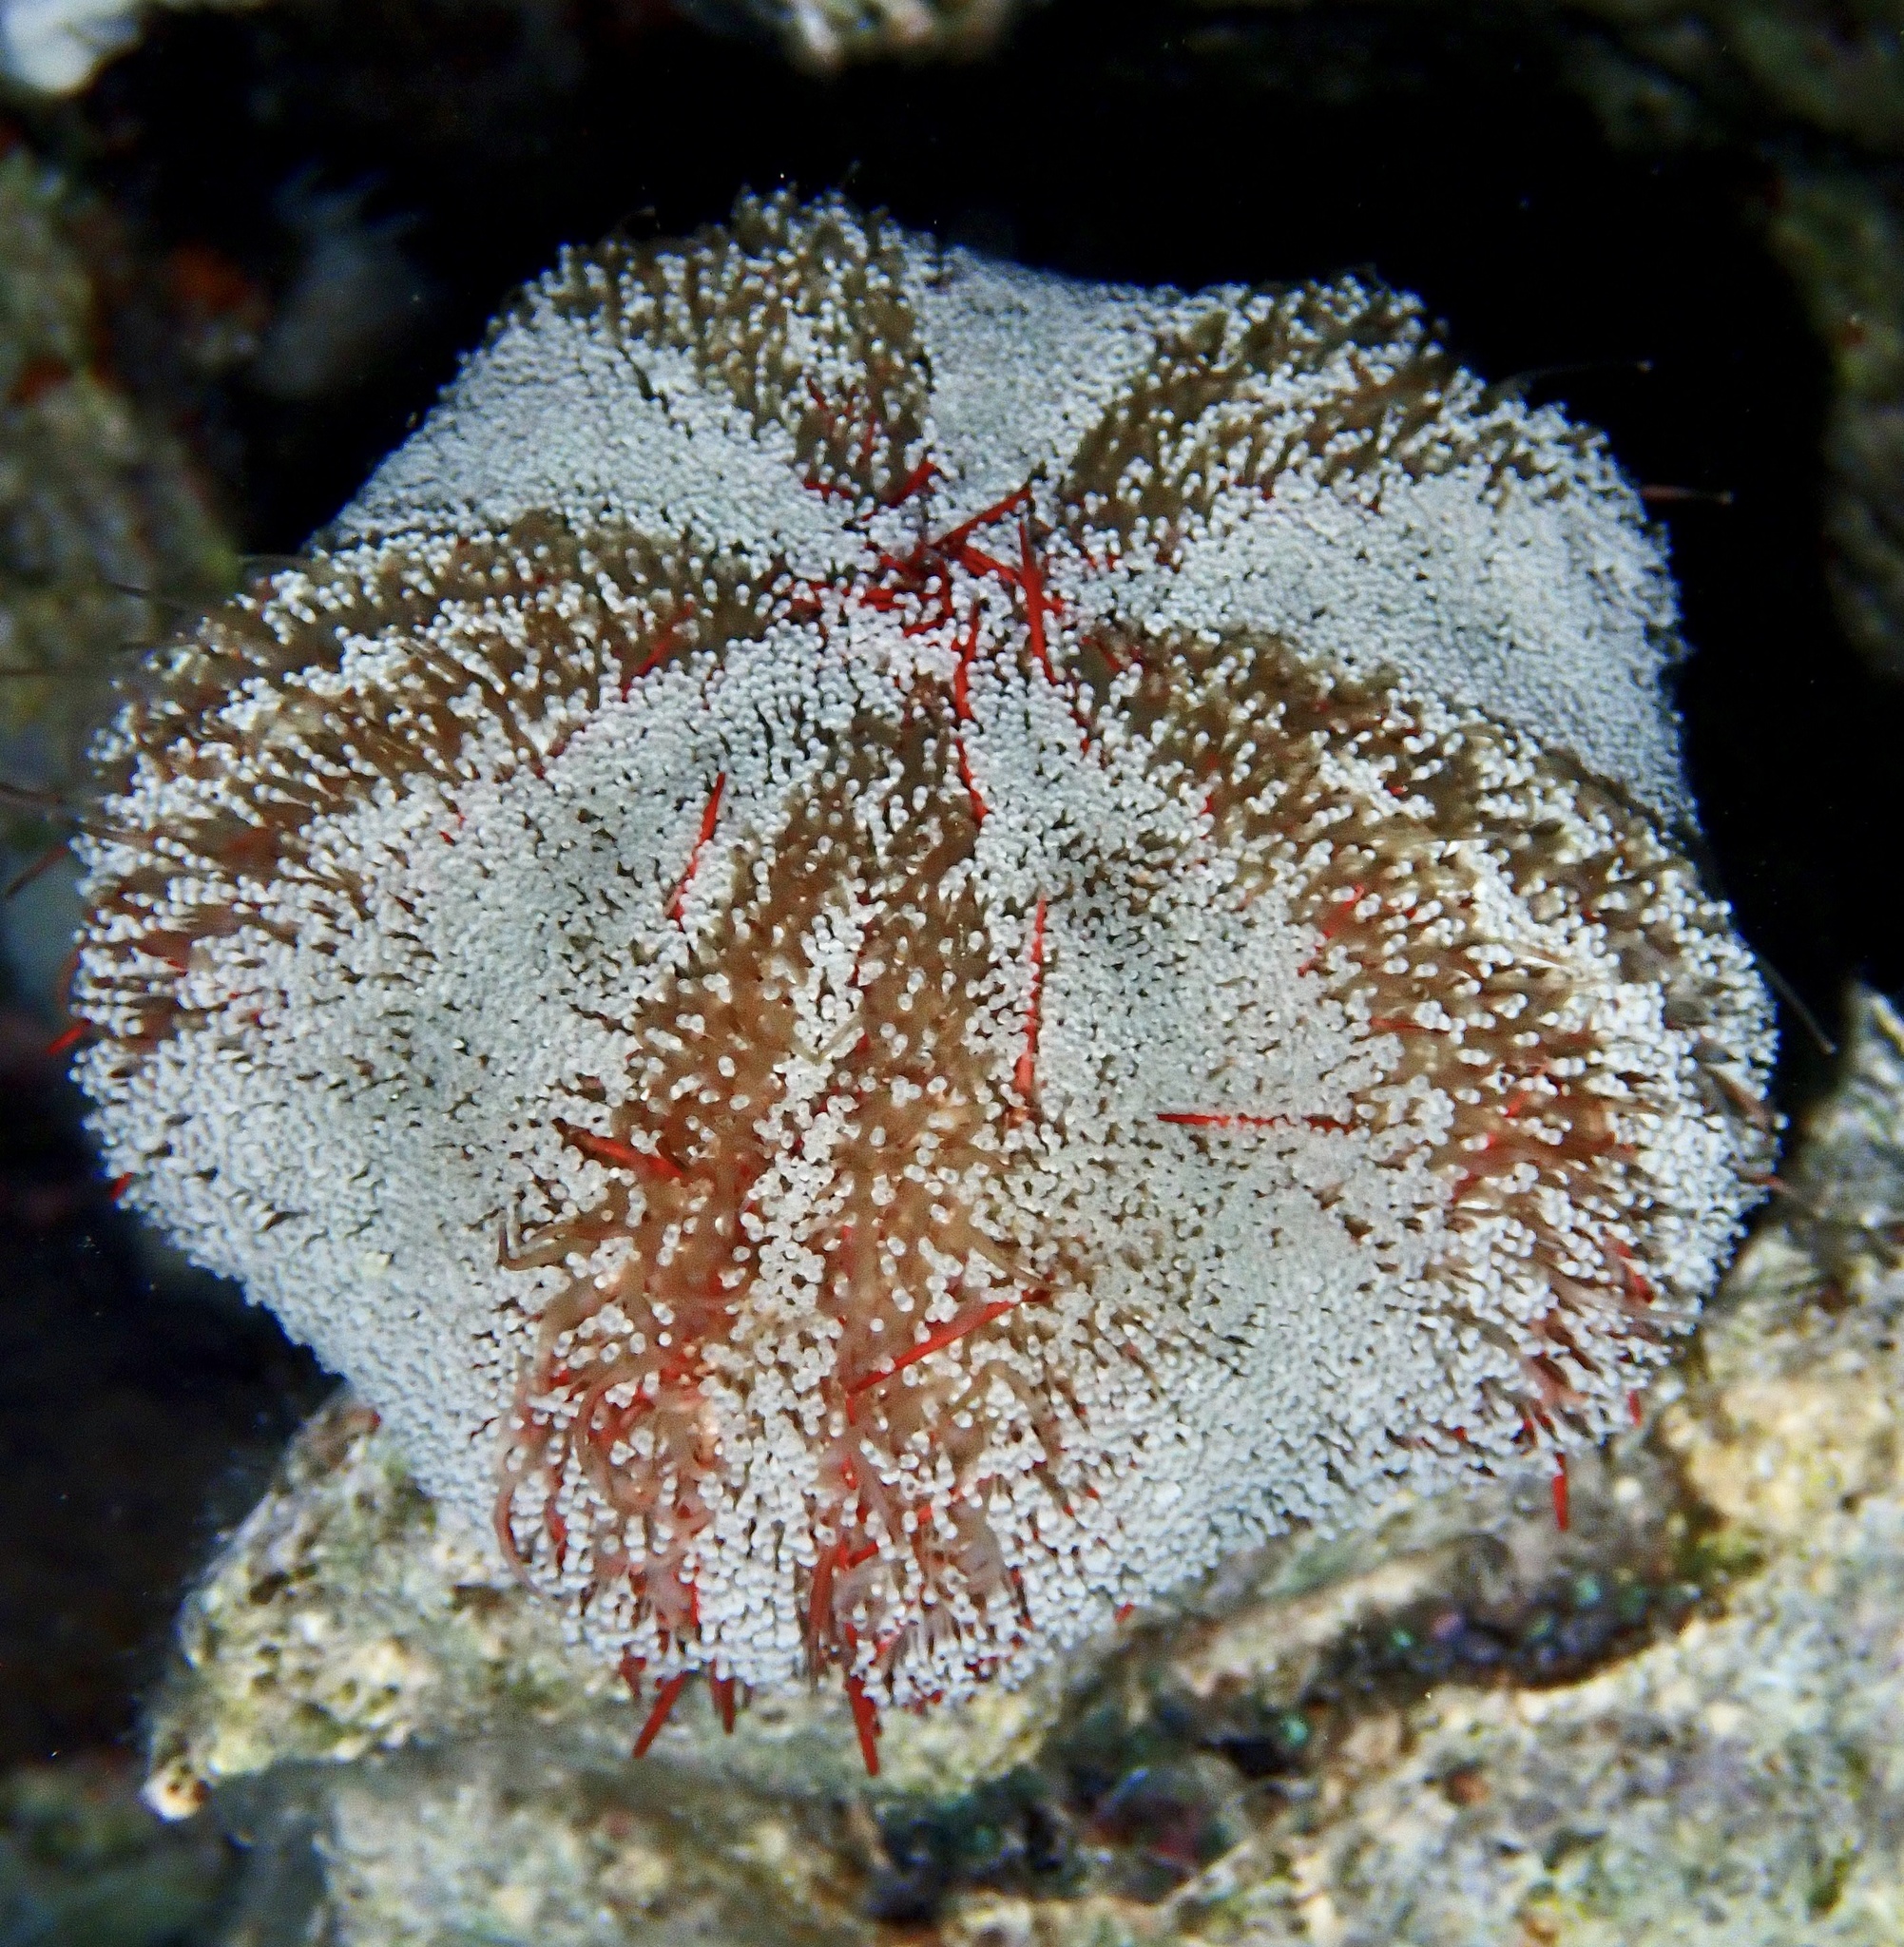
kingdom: Animalia
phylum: Echinodermata
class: Echinoidea
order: Camarodonta
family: Toxopneustidae
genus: Tripneustes
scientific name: Tripneustes gratilla
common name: Bischofsmützenseeigel
